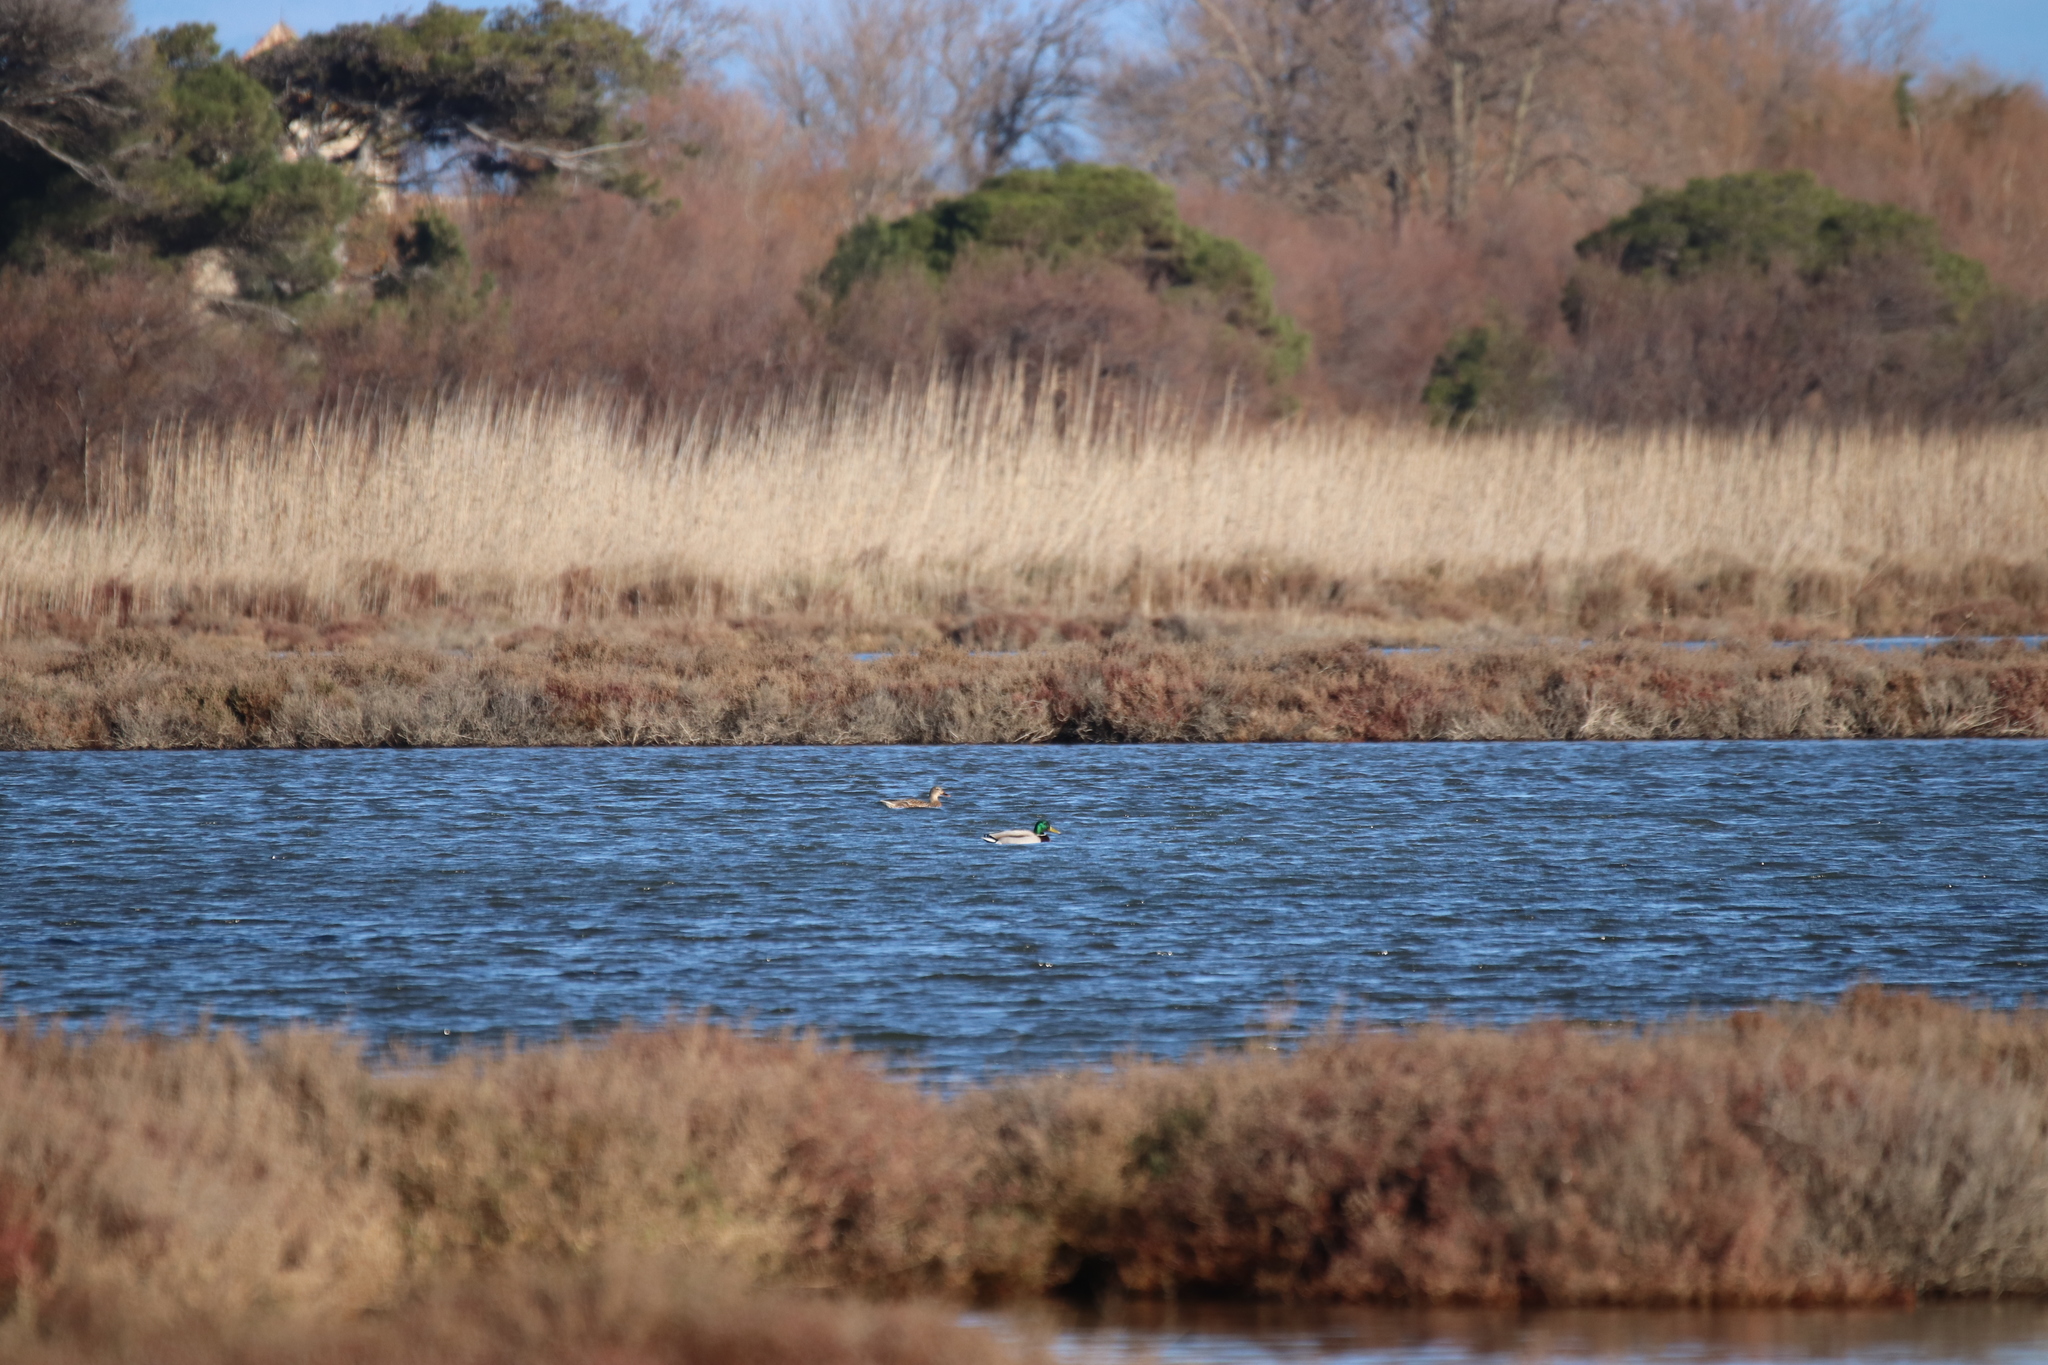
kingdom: Animalia
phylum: Chordata
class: Aves
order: Anseriformes
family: Anatidae
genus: Anas
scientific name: Anas platyrhynchos
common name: Mallard
